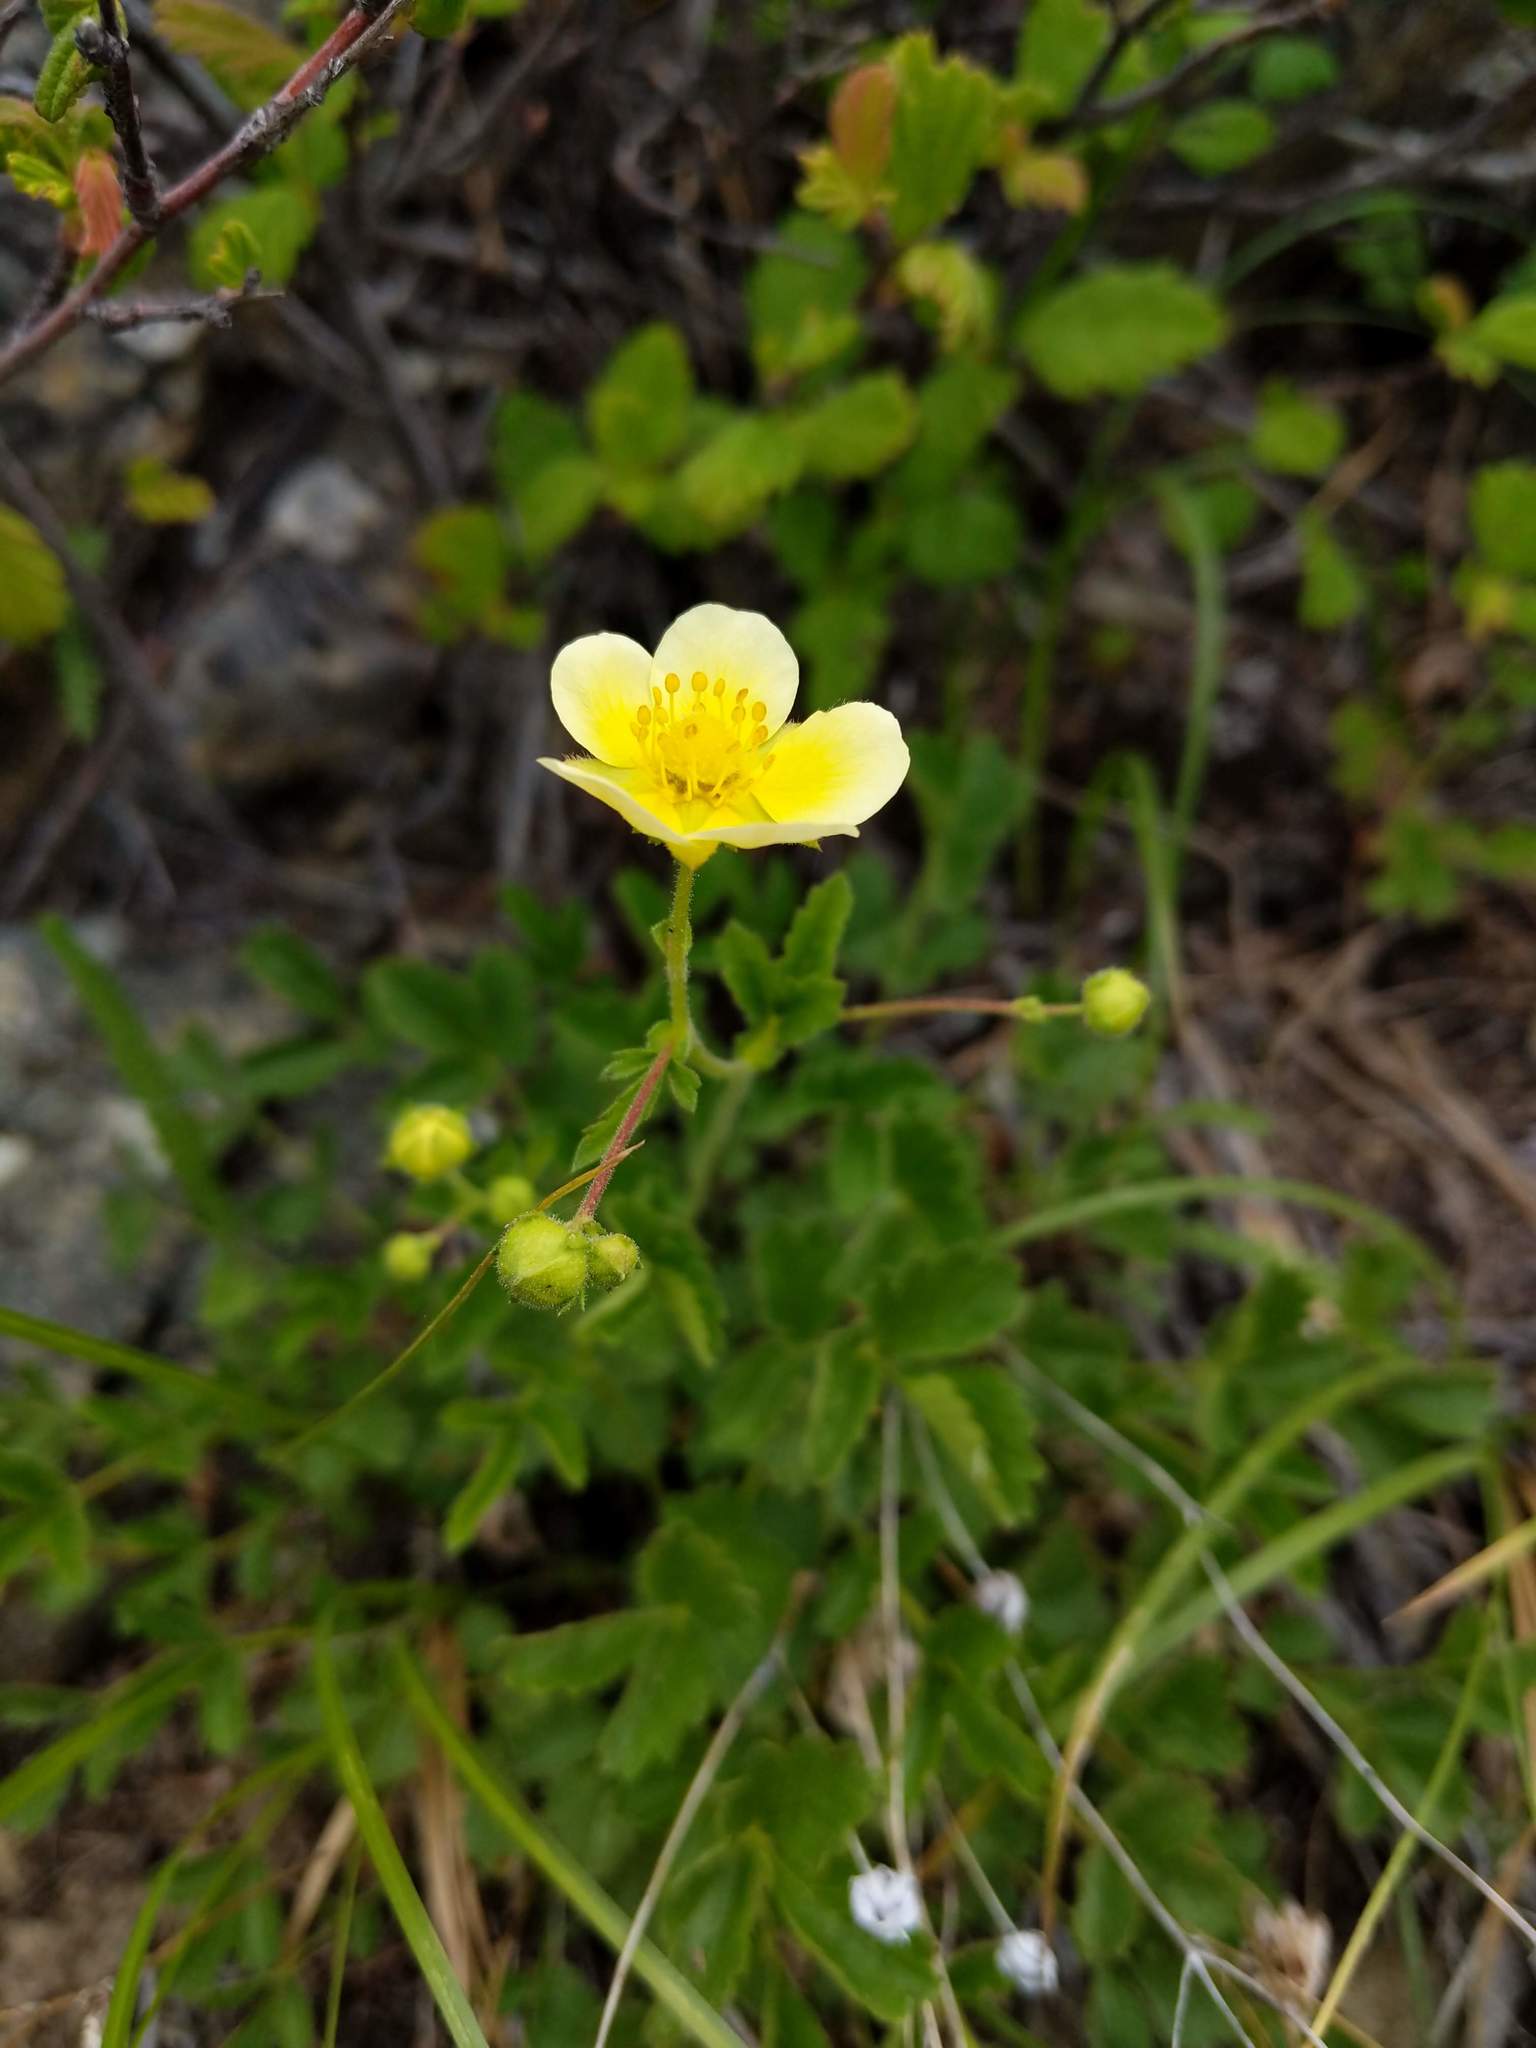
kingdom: Plantae
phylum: Tracheophyta
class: Magnoliopsida
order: Rosales
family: Rosaceae
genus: Drymocallis
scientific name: Drymocallis glandulosa
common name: Sticky cinquefoil
